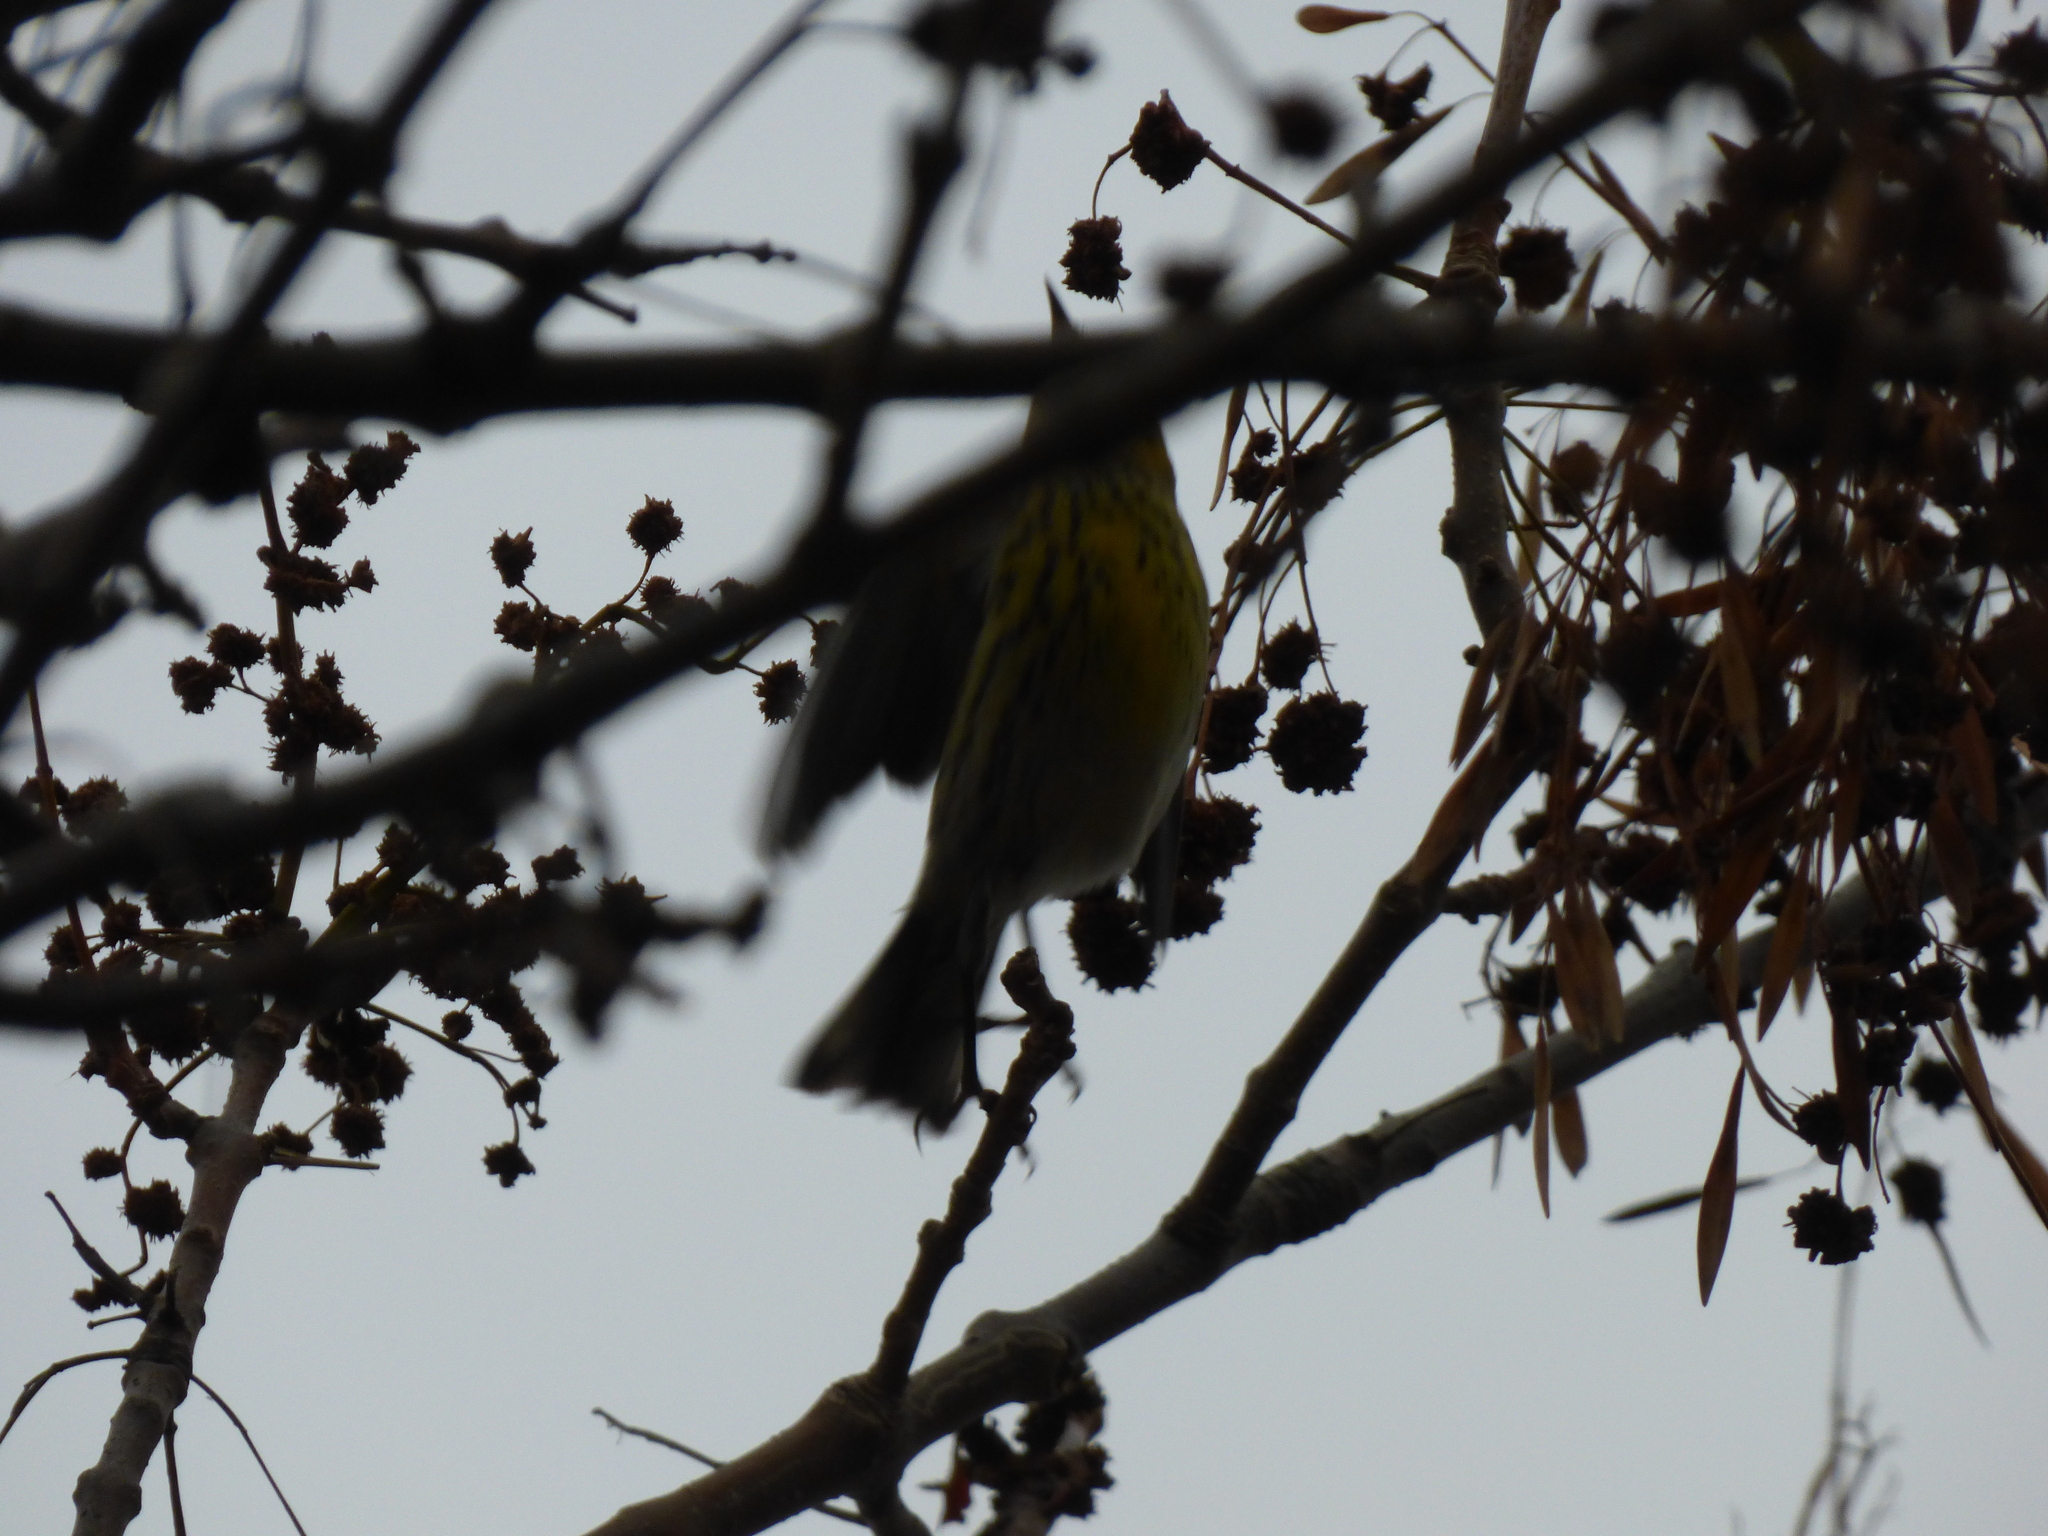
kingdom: Animalia
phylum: Chordata
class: Aves
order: Passeriformes
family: Parulidae
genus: Setophaga
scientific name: Setophaga tigrina
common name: Cape may warbler
